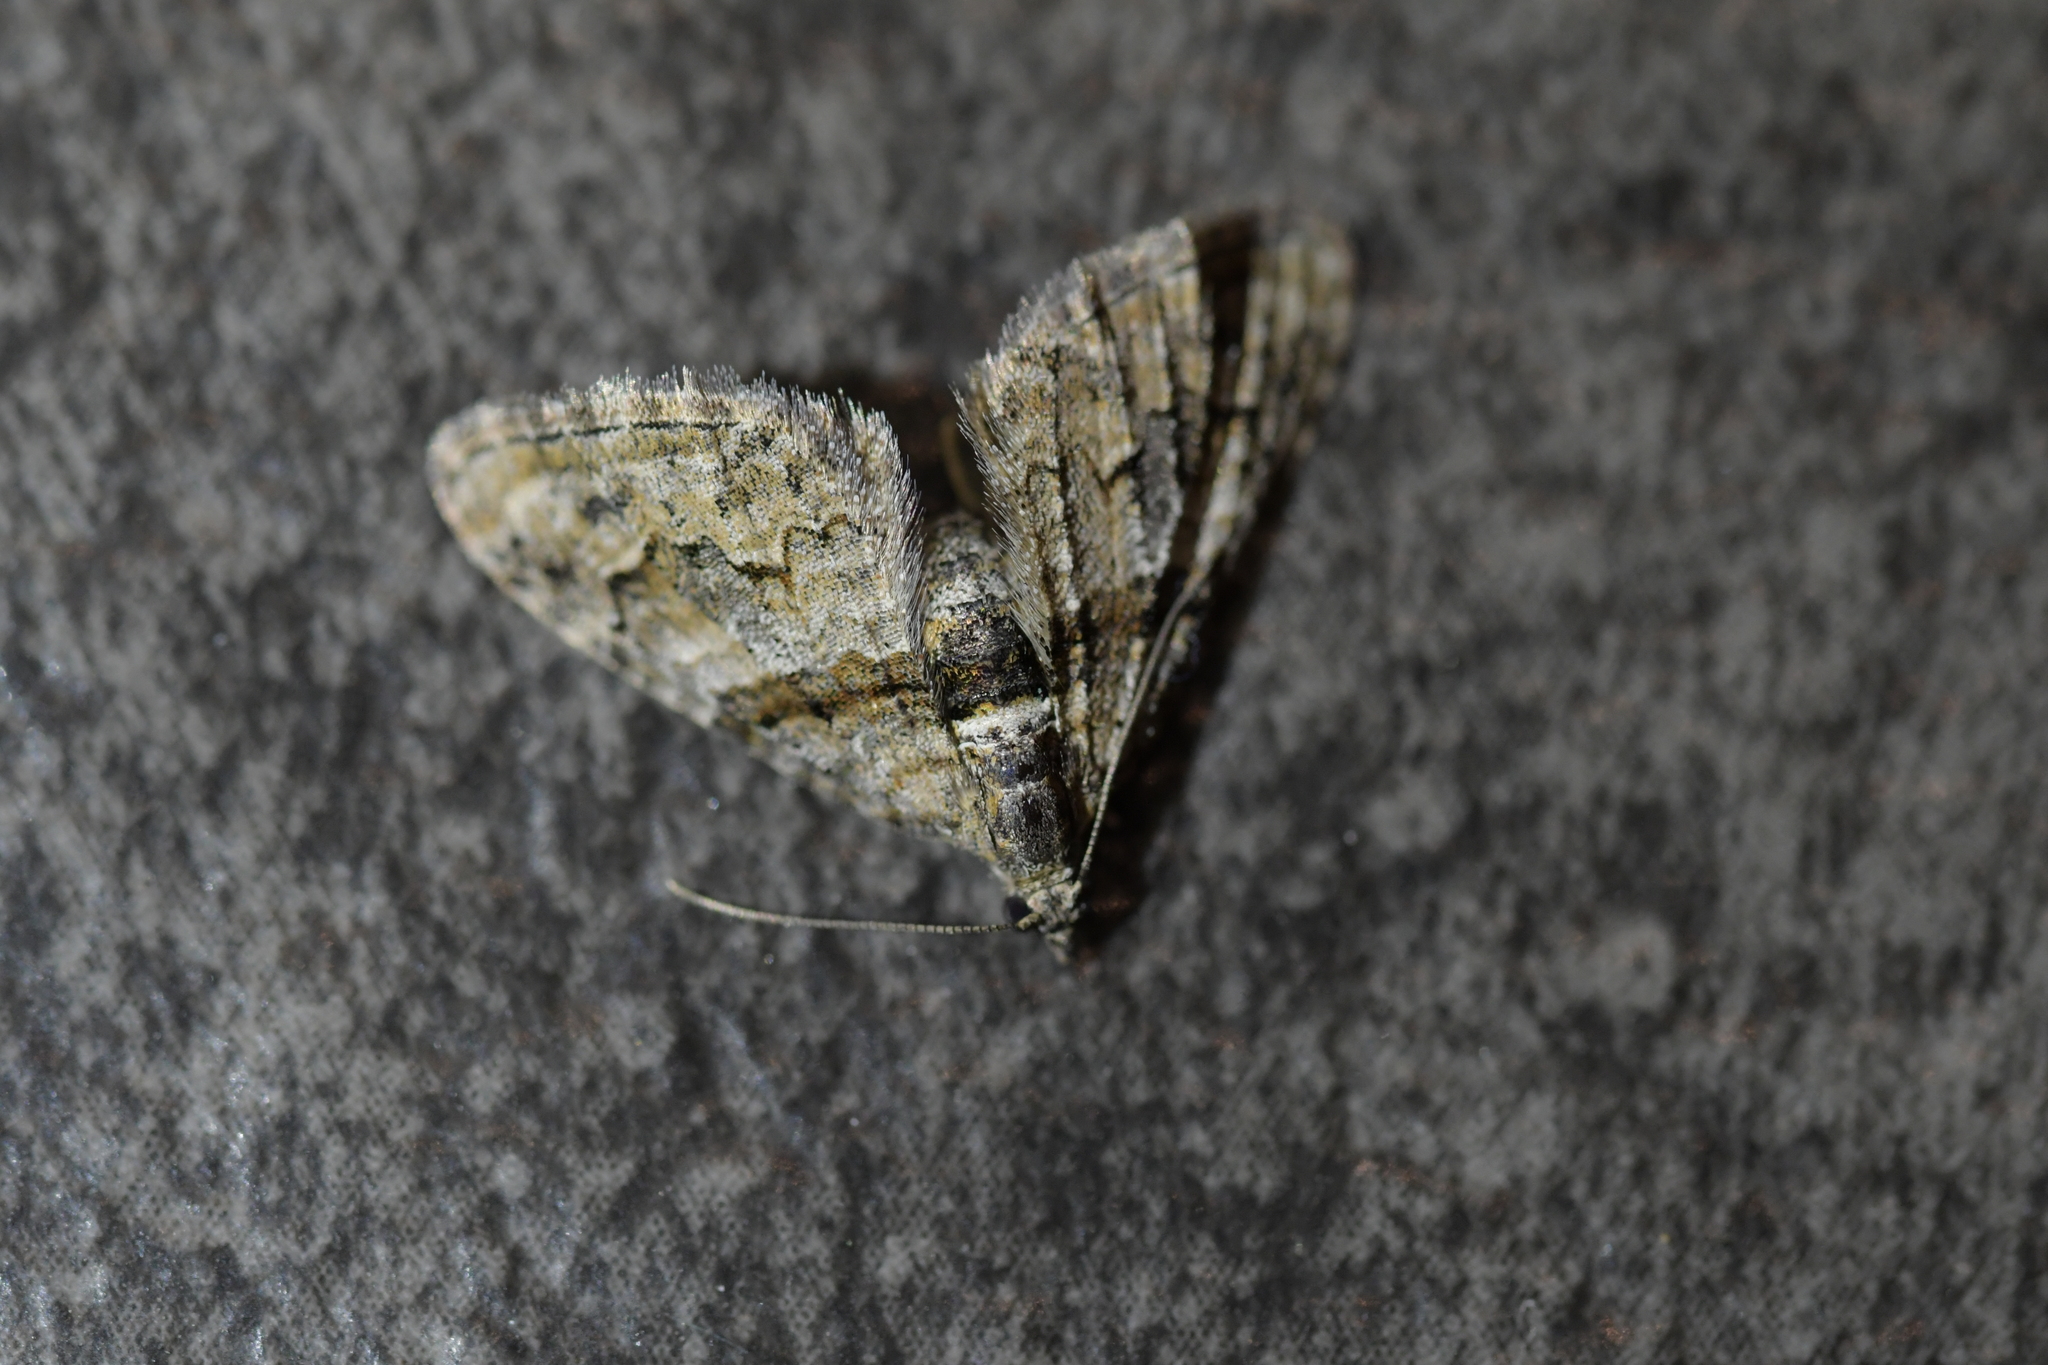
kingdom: Animalia
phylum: Arthropoda
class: Insecta
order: Lepidoptera
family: Geometridae
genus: Phrissogonus
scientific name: Phrissogonus laticostata
